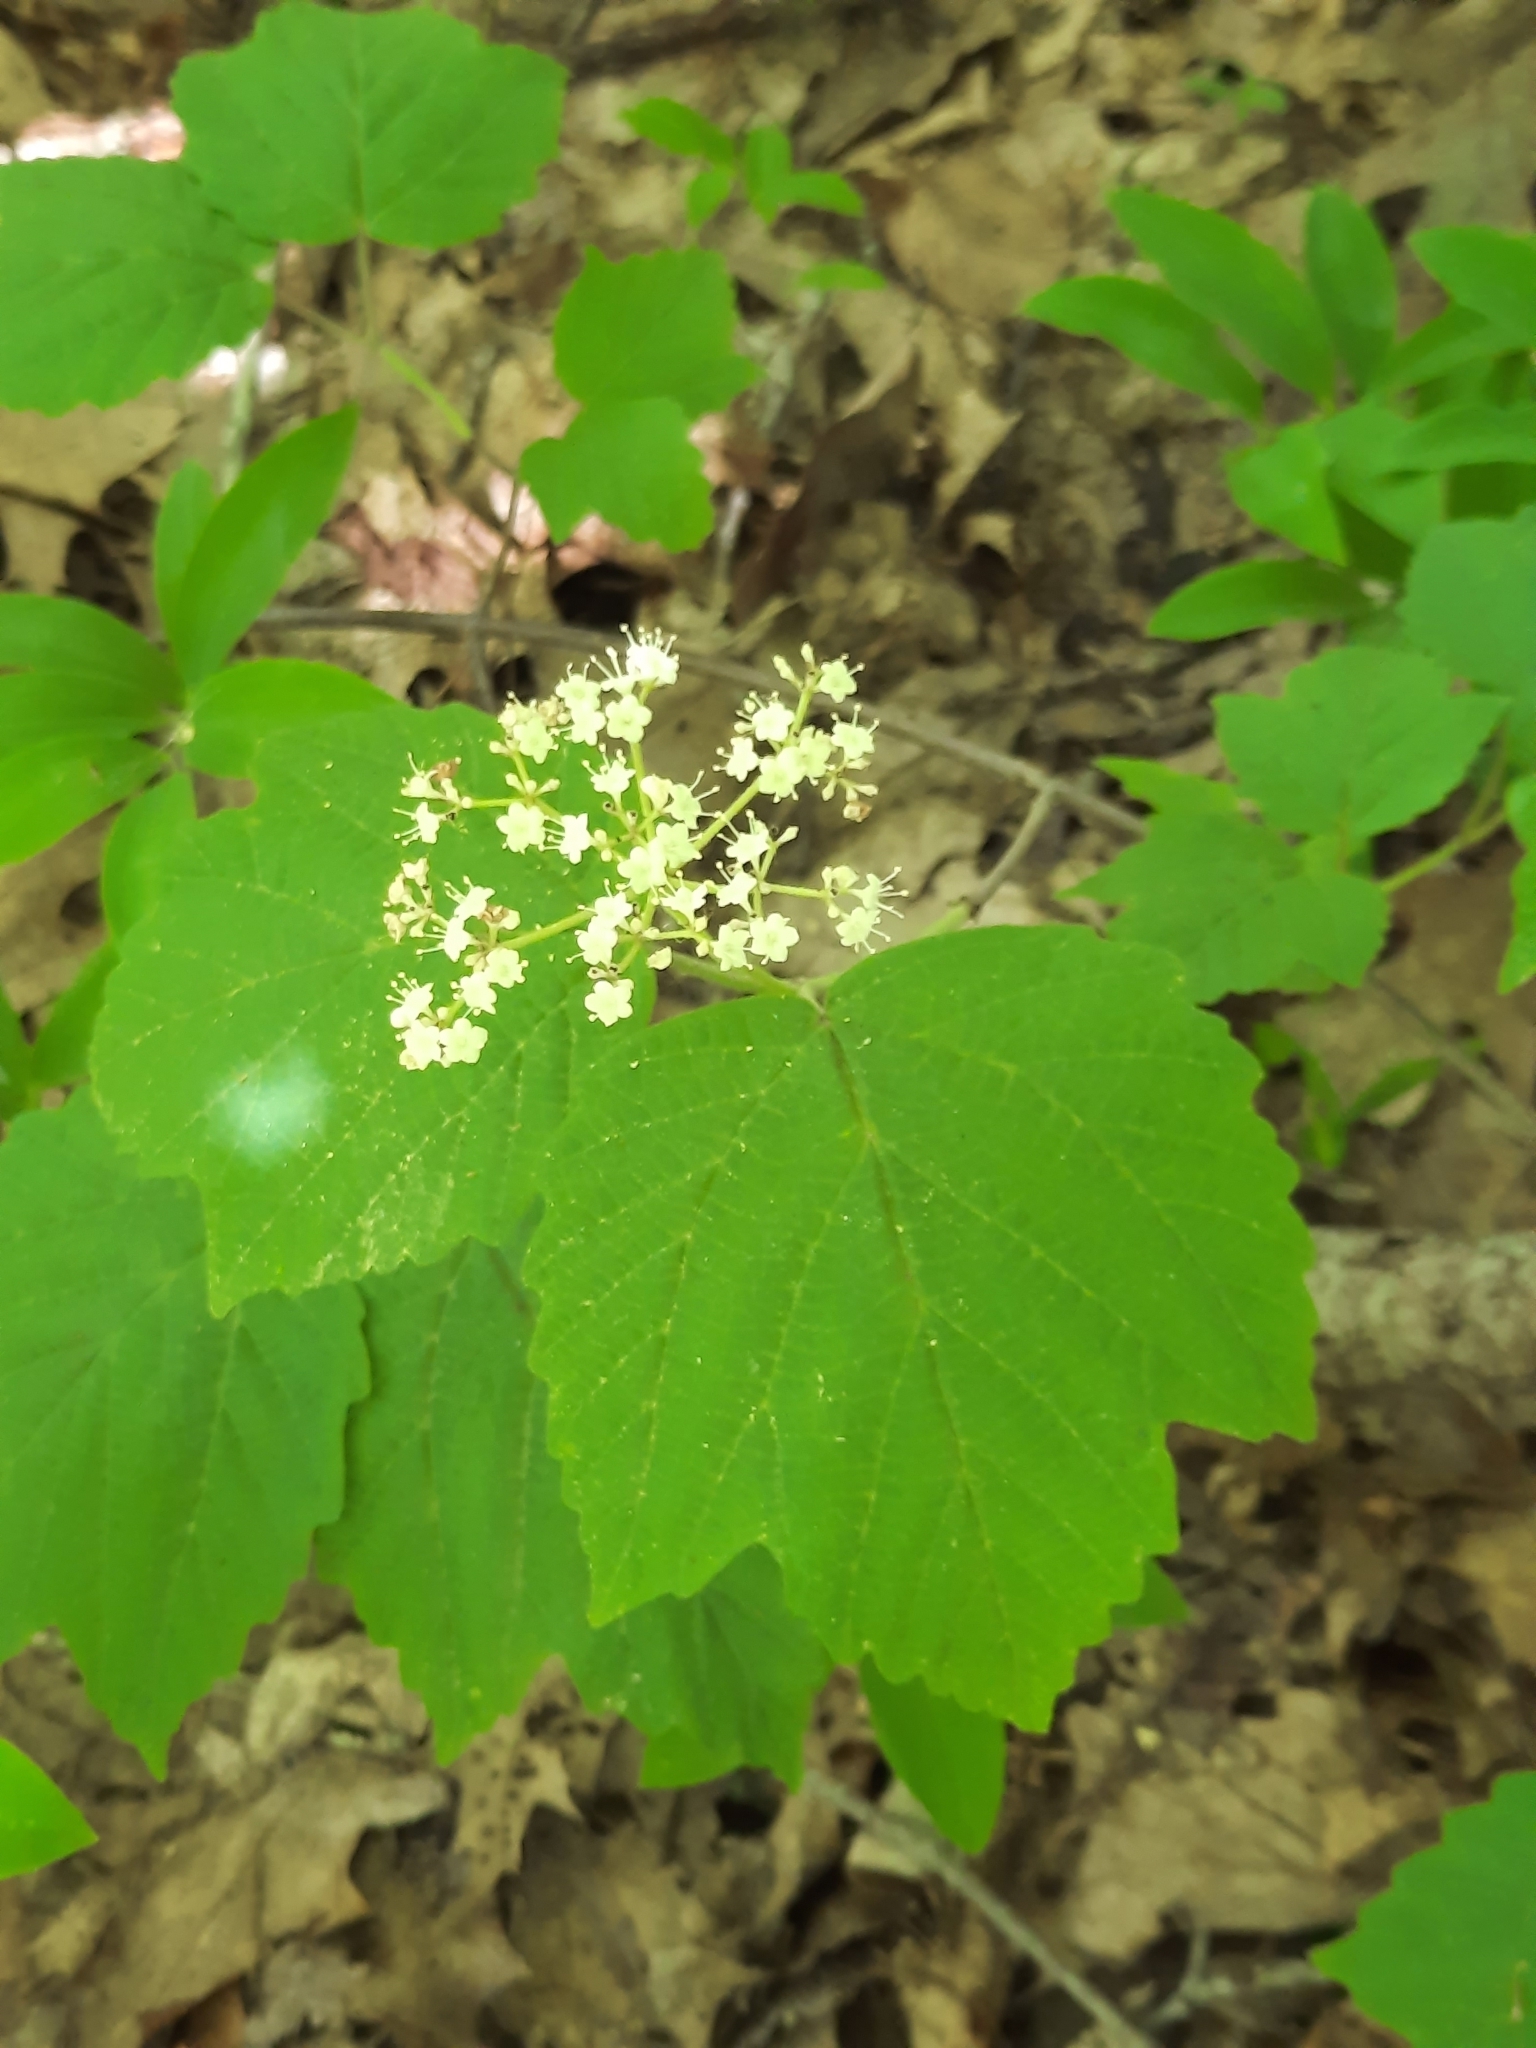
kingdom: Plantae
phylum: Tracheophyta
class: Magnoliopsida
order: Dipsacales
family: Viburnaceae
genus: Viburnum
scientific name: Viburnum acerifolium
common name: Dockmackie
